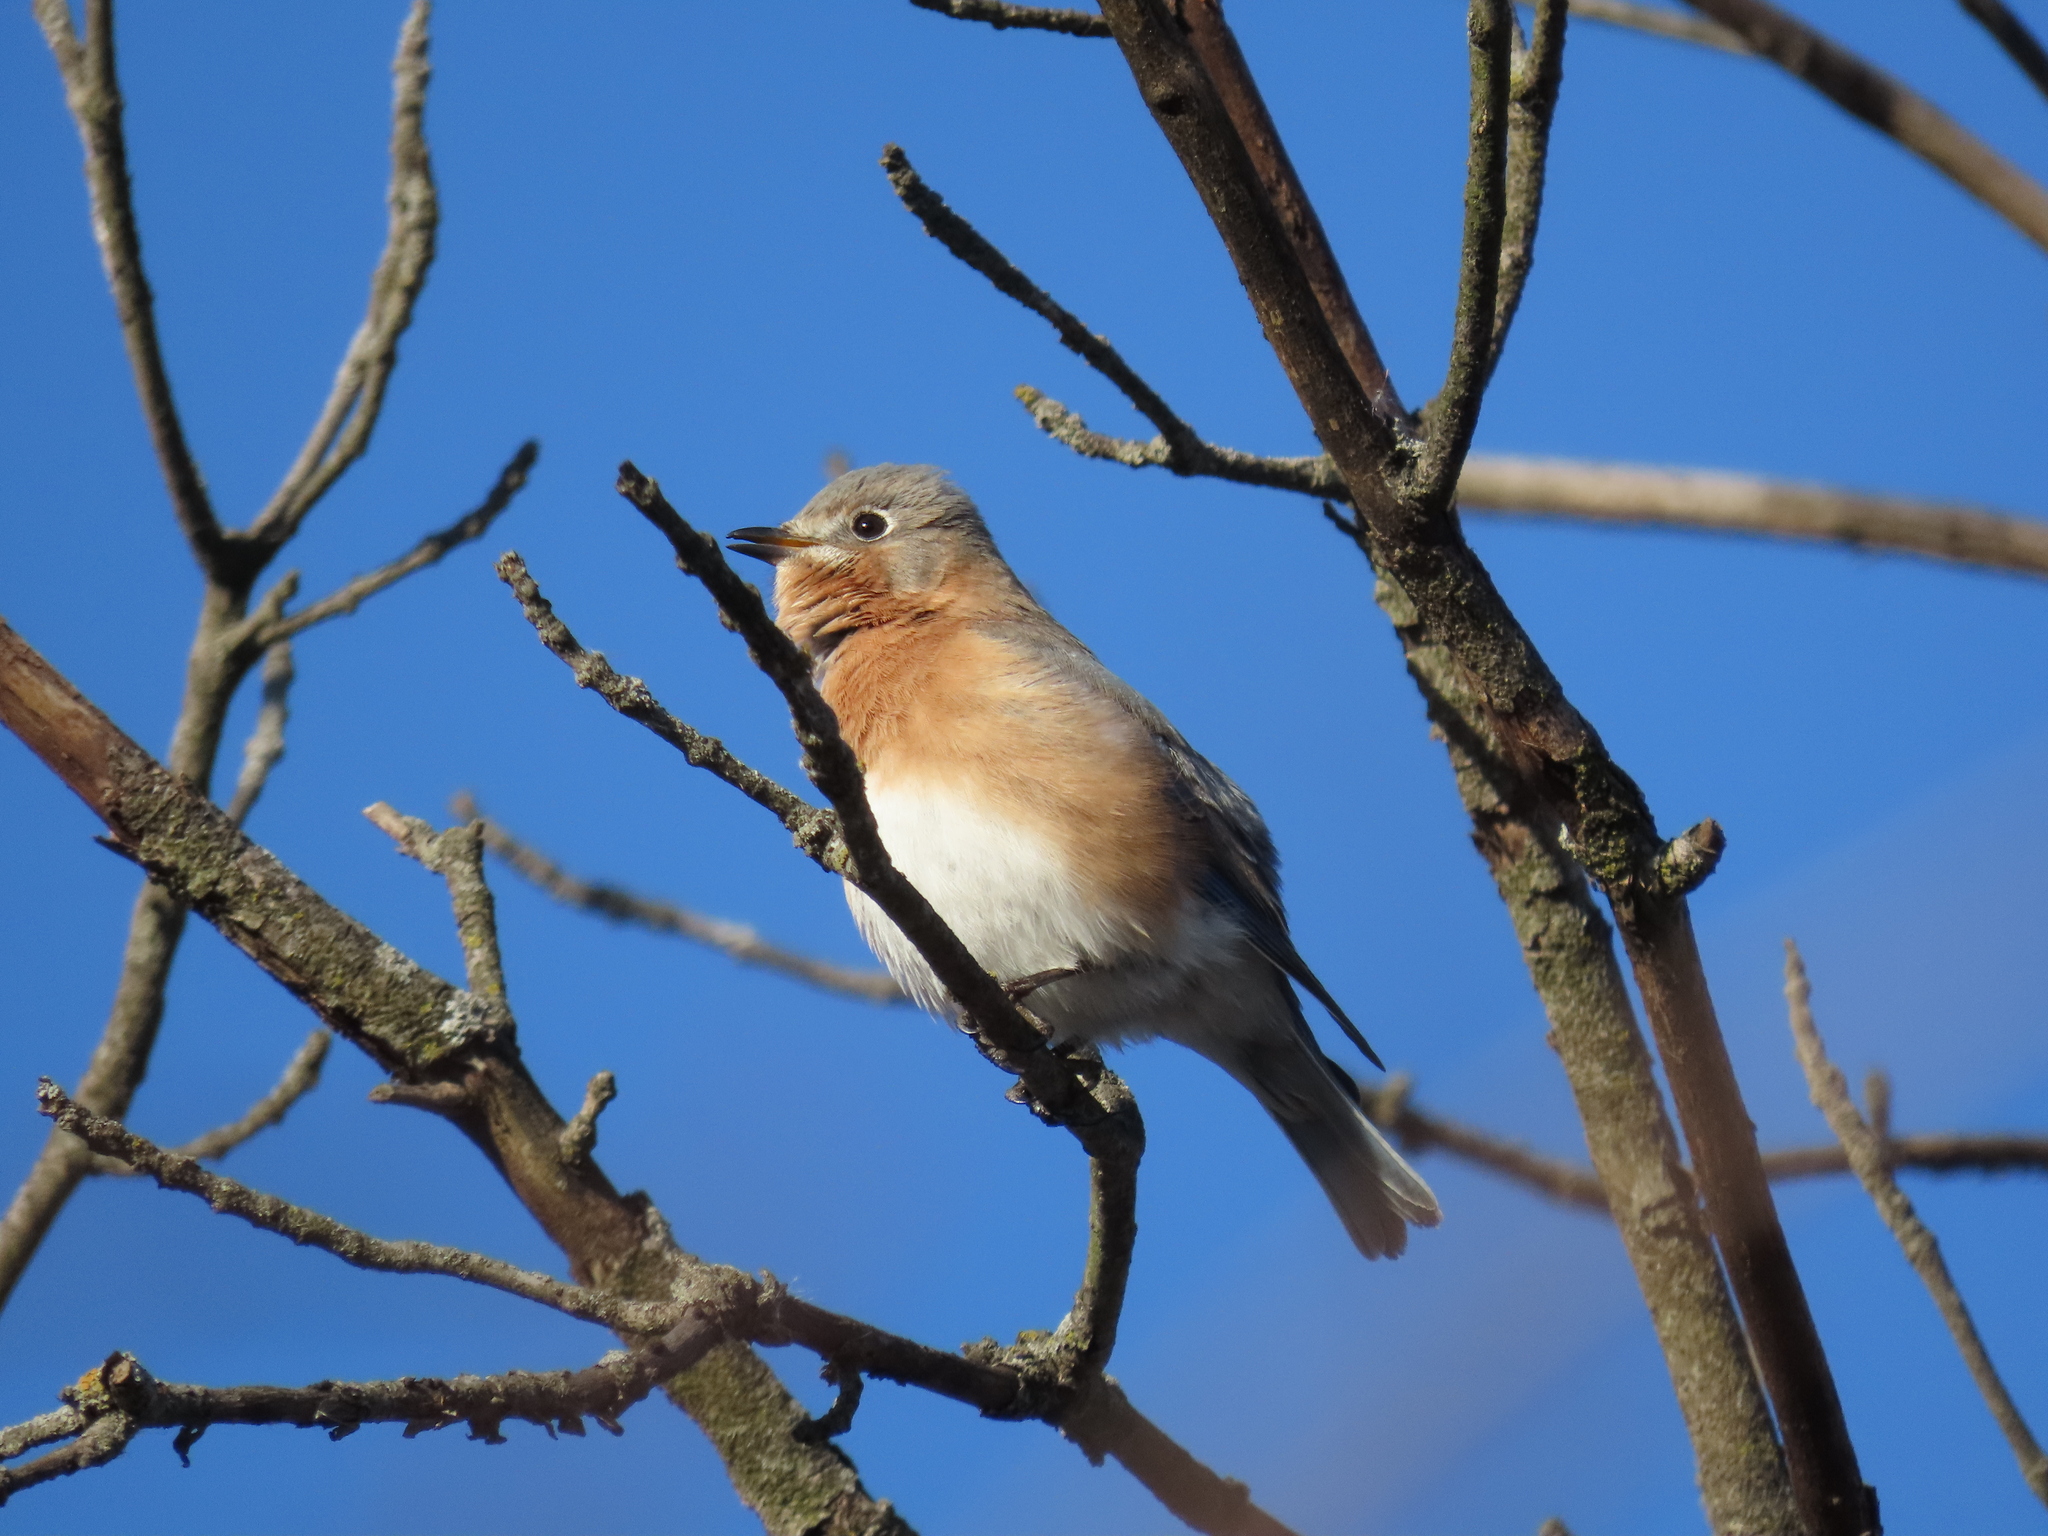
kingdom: Animalia
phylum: Chordata
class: Aves
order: Passeriformes
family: Turdidae
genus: Sialia
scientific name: Sialia sialis
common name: Eastern bluebird
